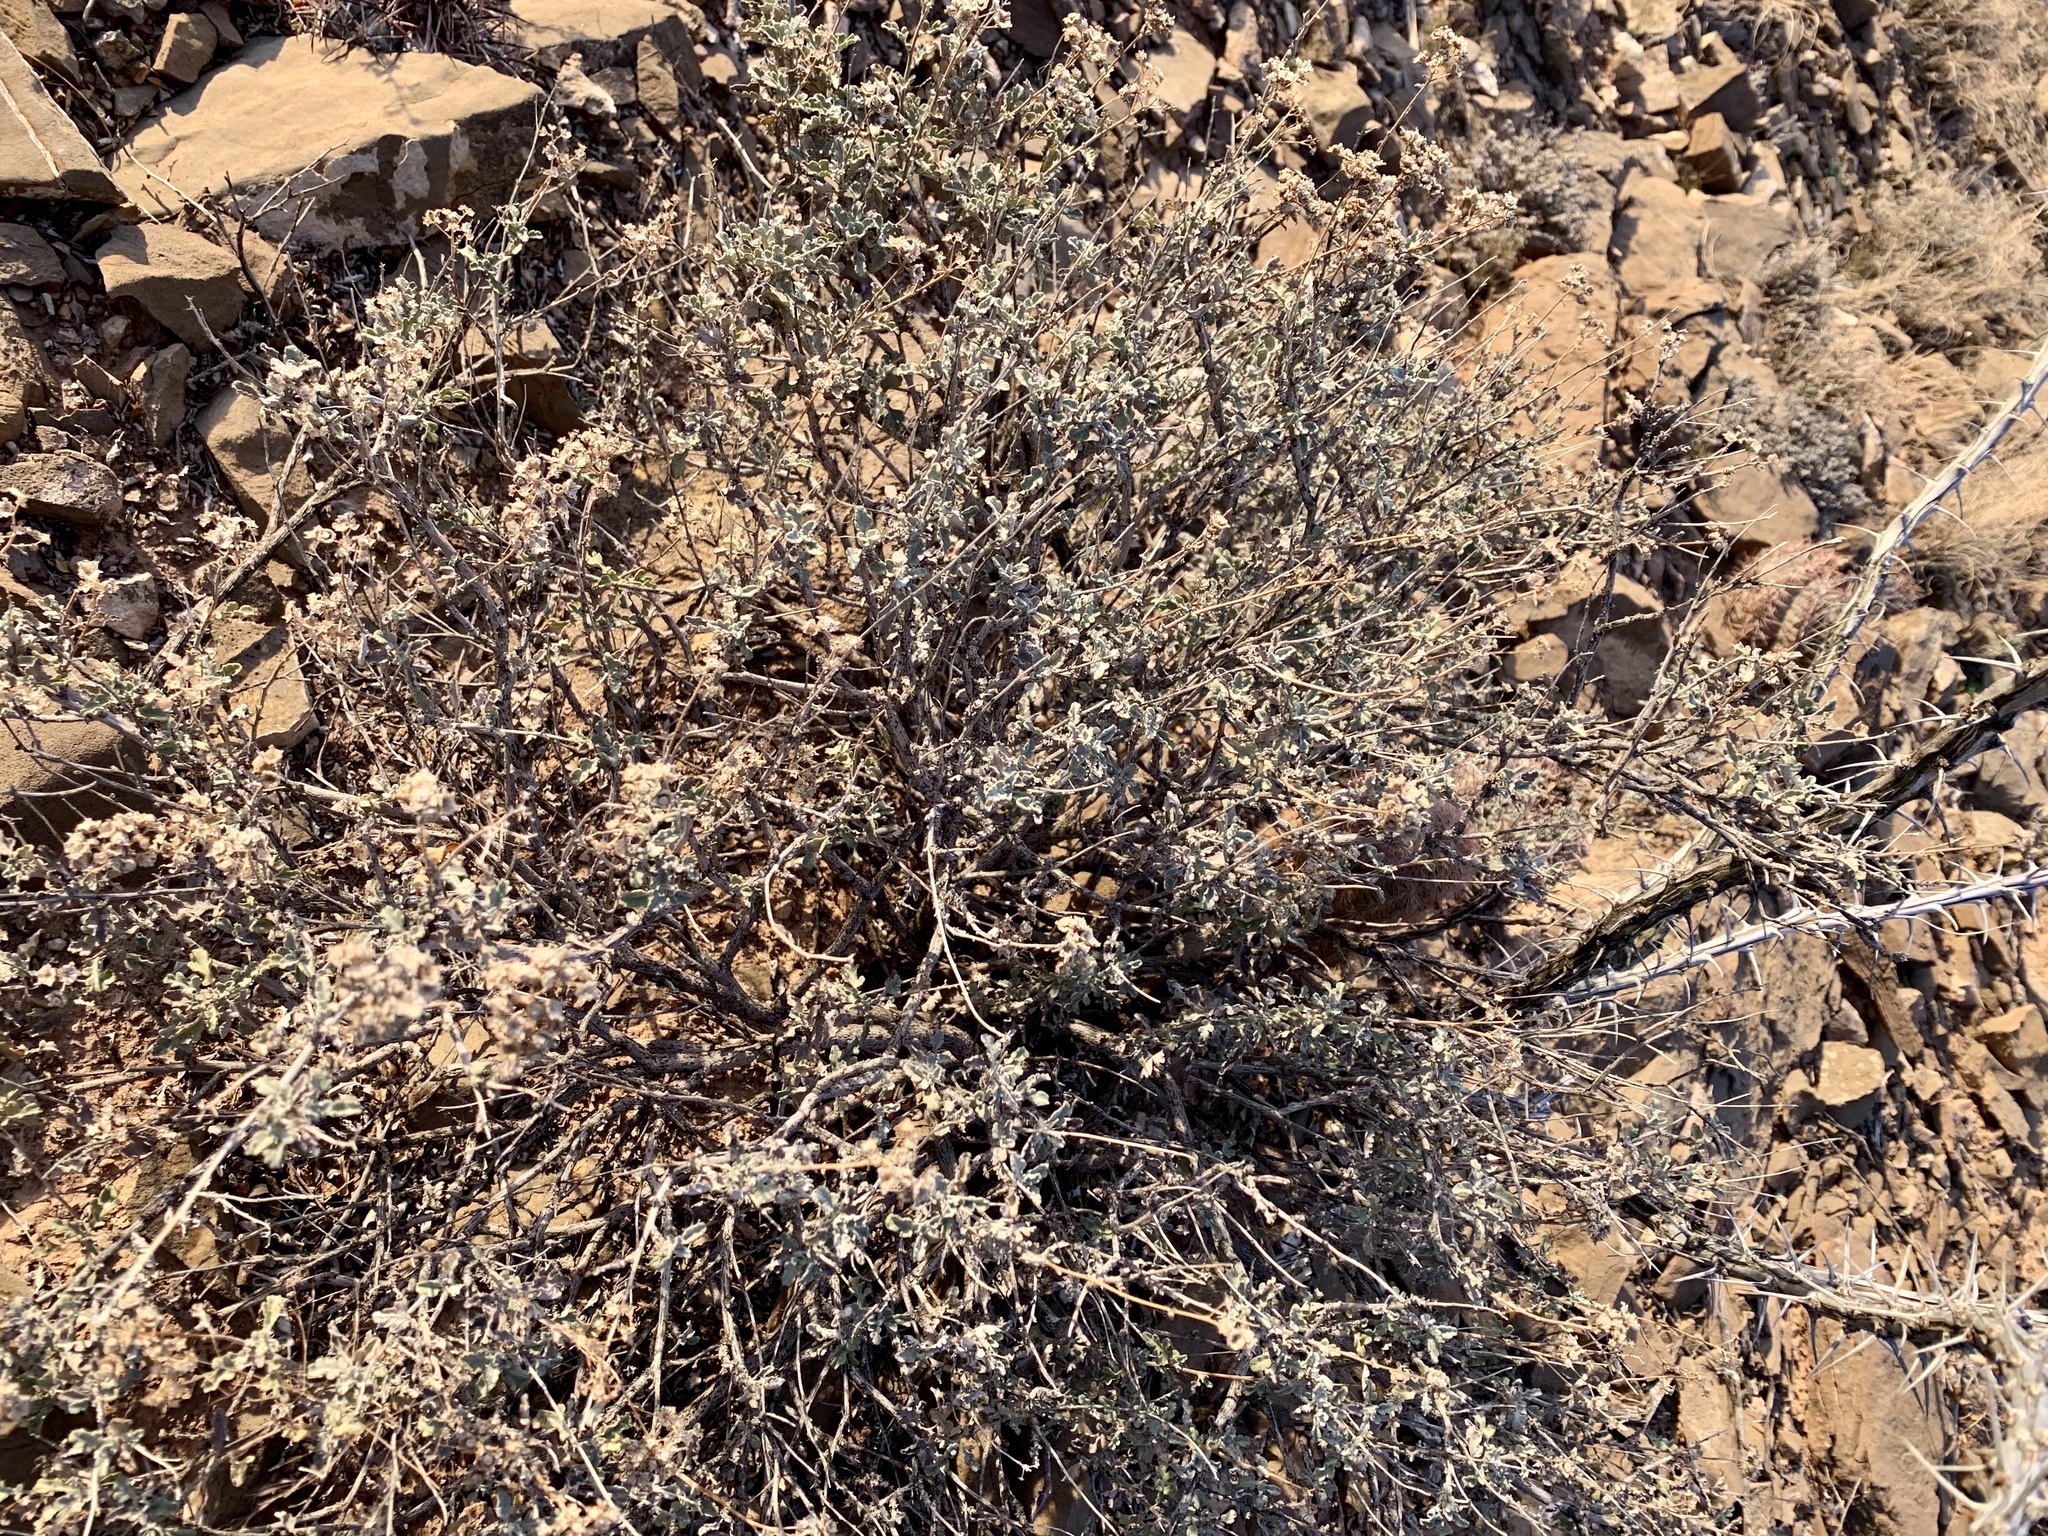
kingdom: Plantae
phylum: Tracheophyta
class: Magnoliopsida
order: Asterales
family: Asteraceae
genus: Parthenium
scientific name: Parthenium incanum
